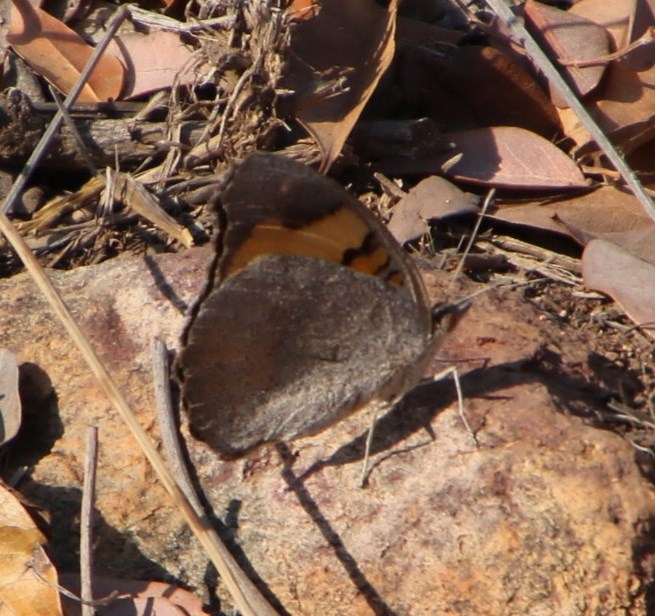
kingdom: Animalia
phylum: Arthropoda
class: Insecta
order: Lepidoptera
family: Nymphalidae
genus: Junonia
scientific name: Junonia hierta
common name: Yellow pansy
